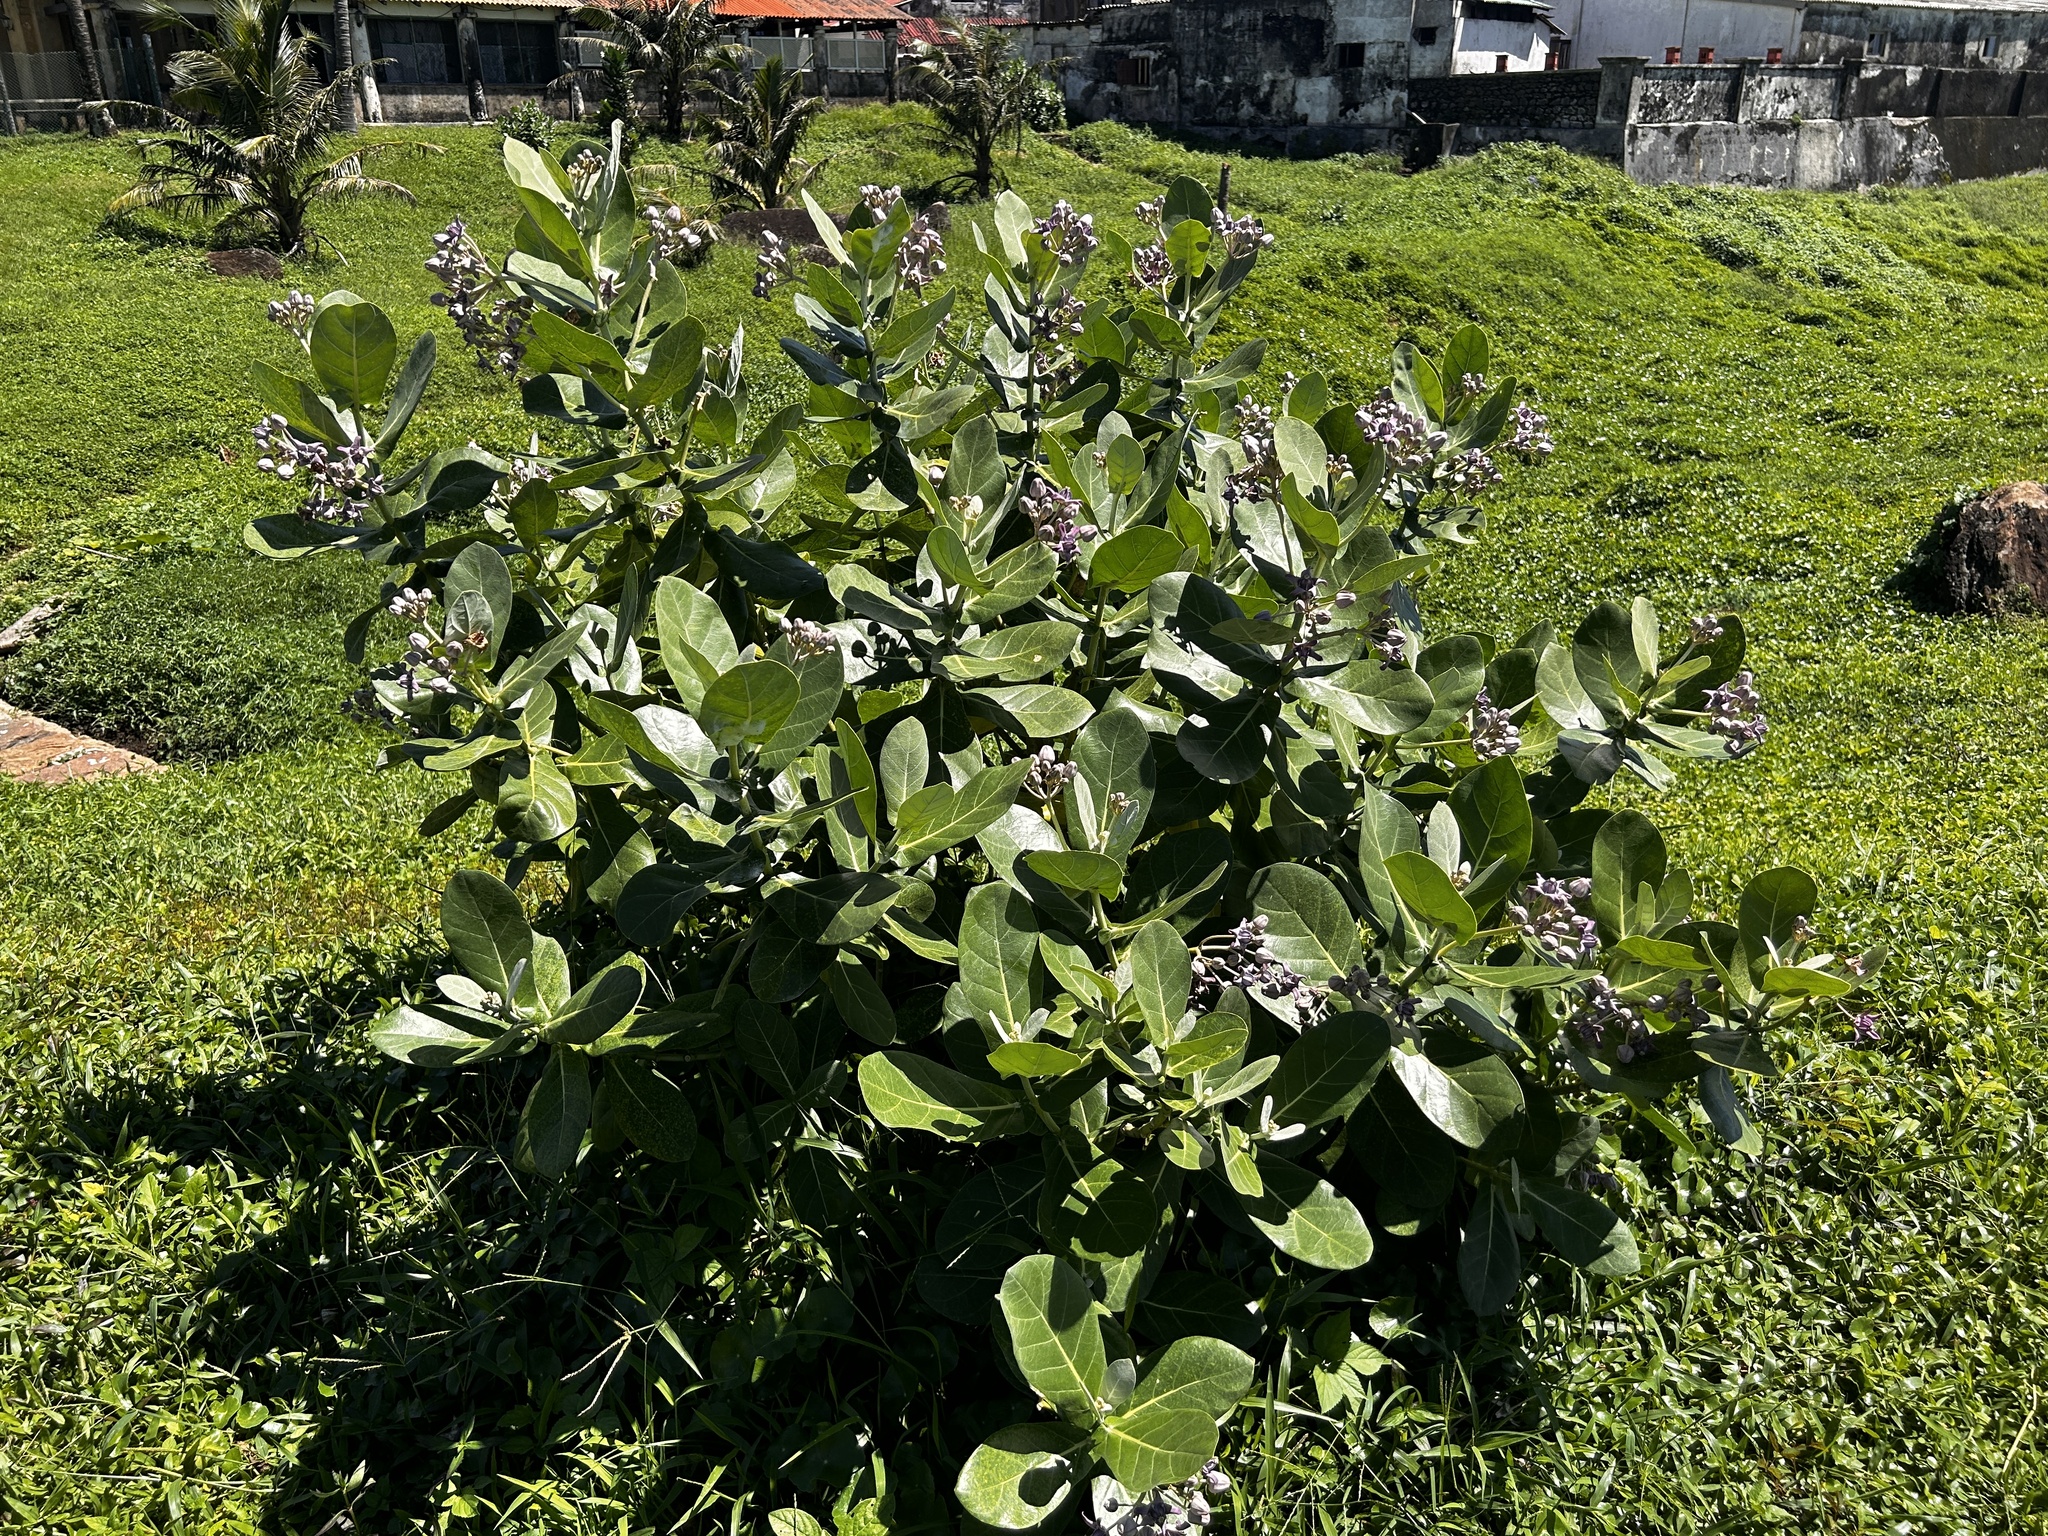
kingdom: Plantae
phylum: Tracheophyta
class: Magnoliopsida
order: Gentianales
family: Apocynaceae
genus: Calotropis
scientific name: Calotropis gigantea
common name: Crown flower
